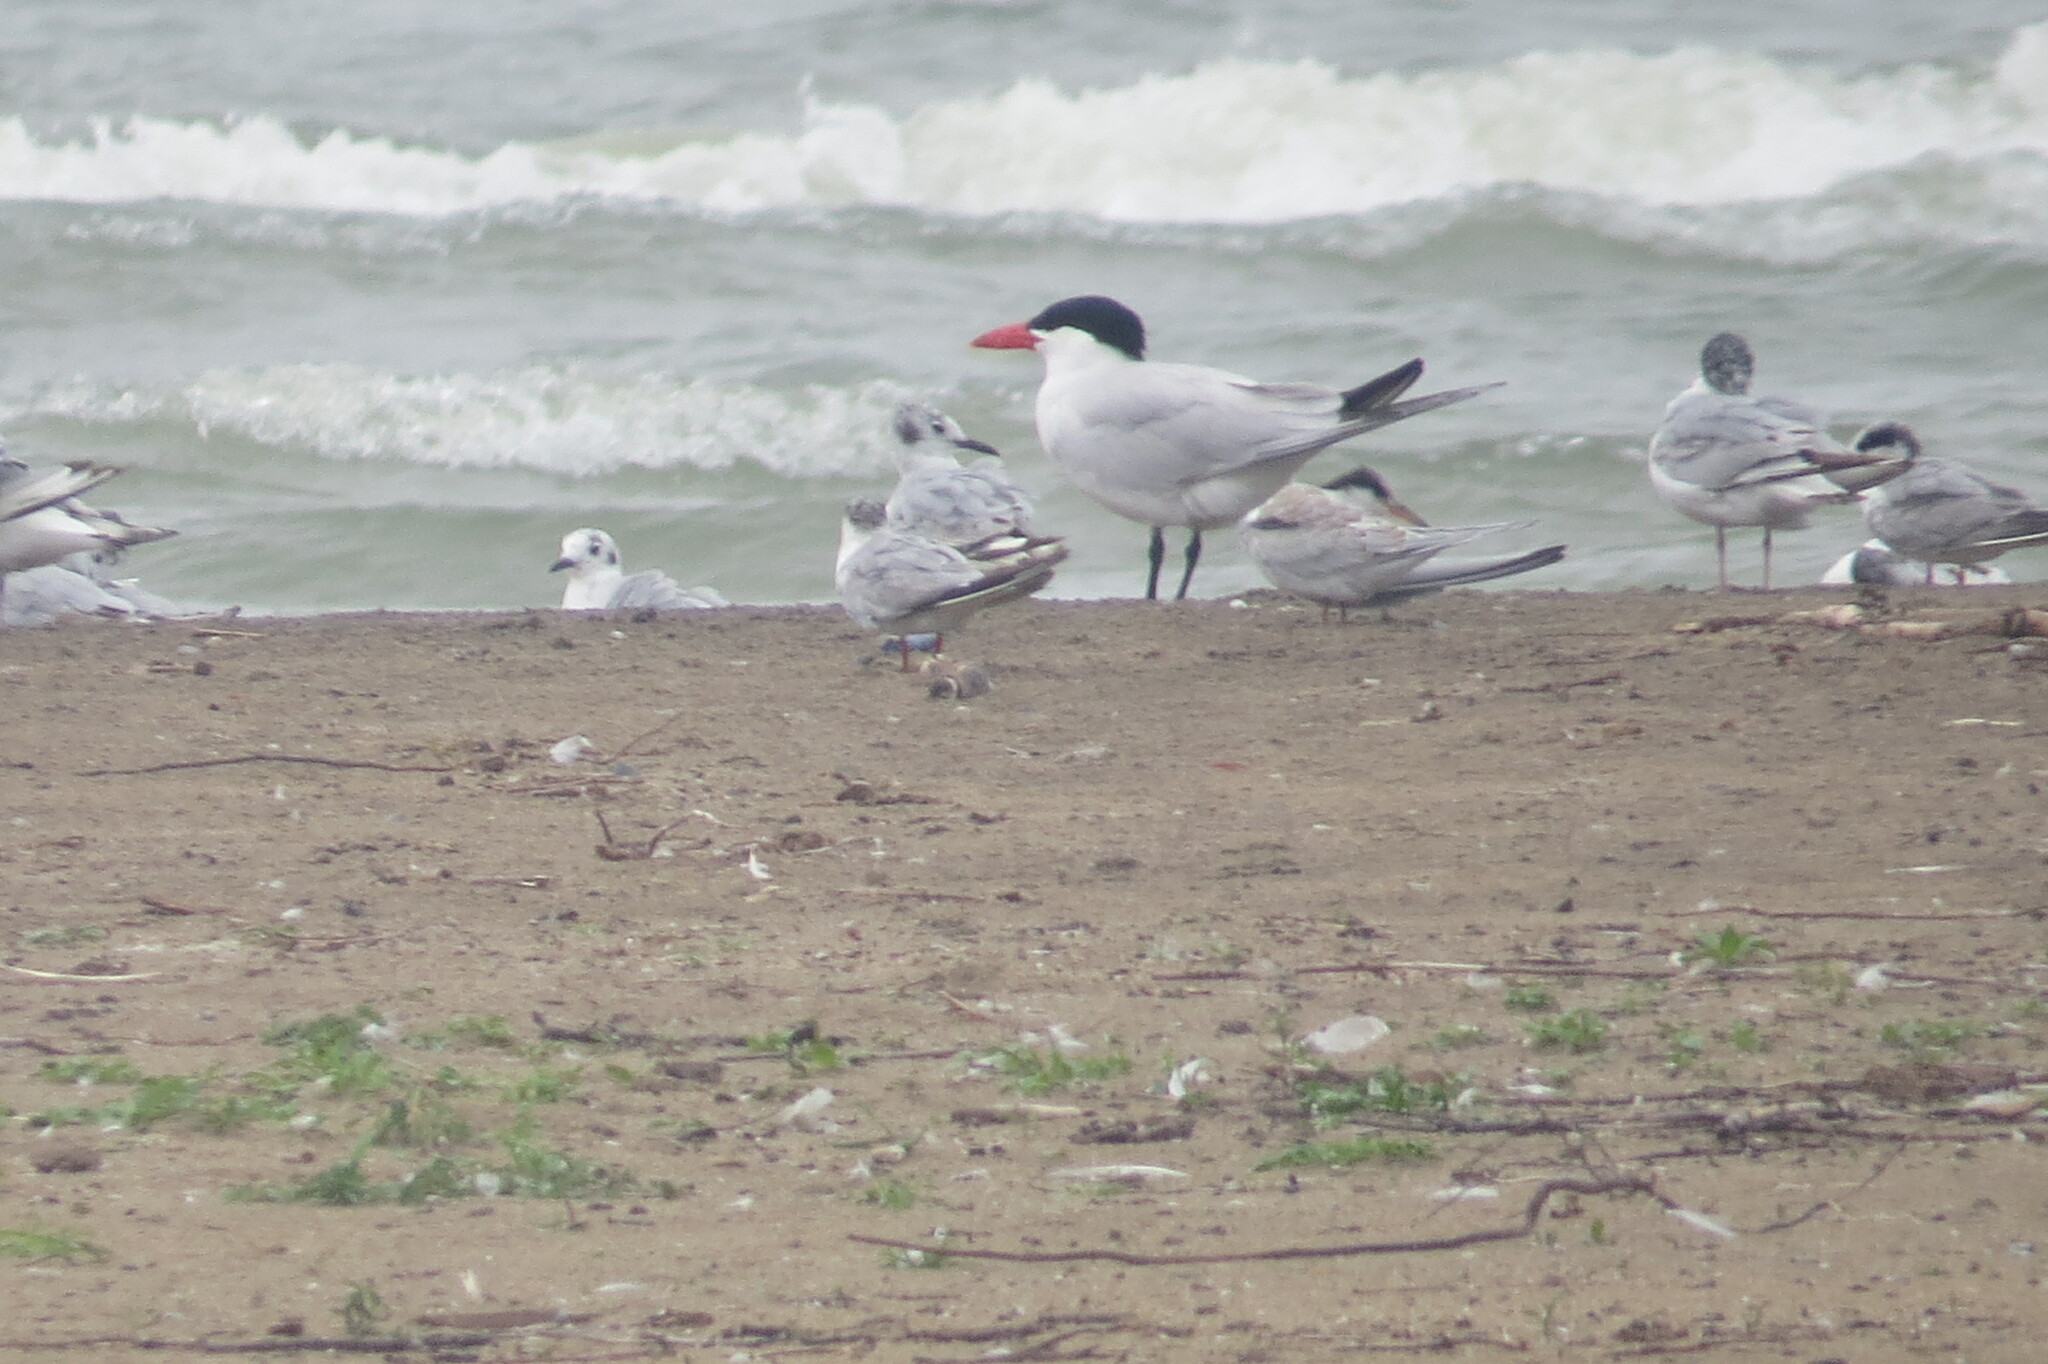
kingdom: Animalia
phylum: Chordata
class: Aves
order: Charadriiformes
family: Laridae
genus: Hydroprogne
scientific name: Hydroprogne caspia
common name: Caspian tern
